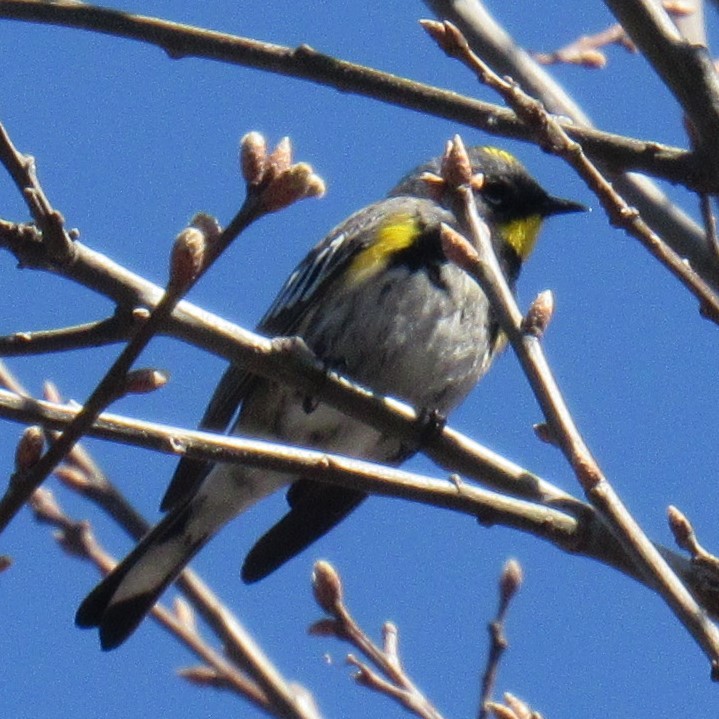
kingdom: Animalia
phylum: Chordata
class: Aves
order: Passeriformes
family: Parulidae
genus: Setophaga
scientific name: Setophaga auduboni
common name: Audubon's warbler
